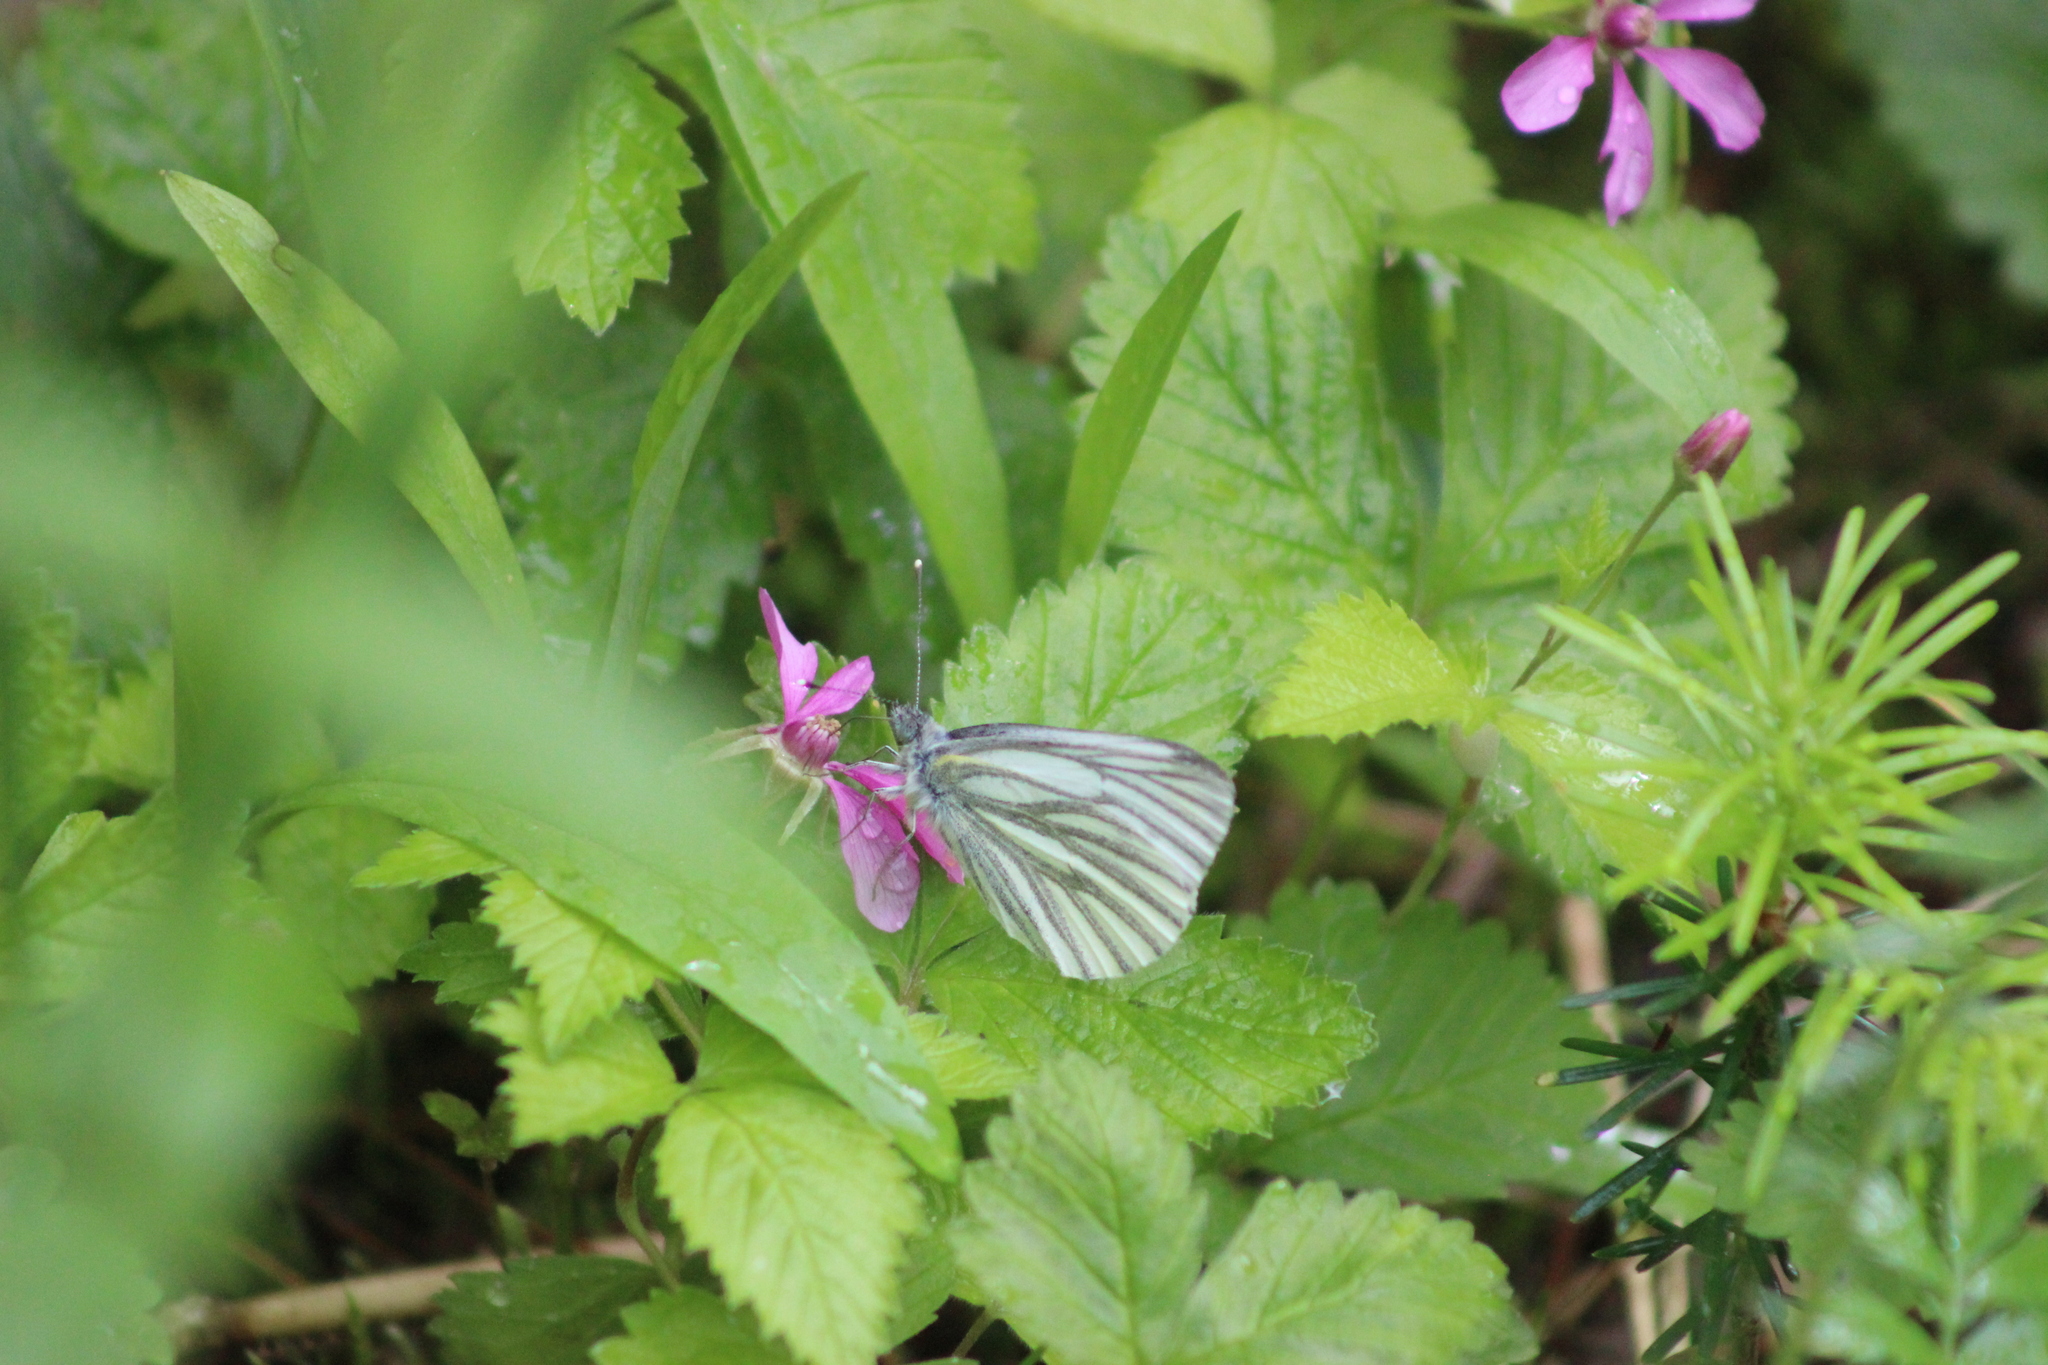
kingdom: Animalia
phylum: Arthropoda
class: Insecta
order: Lepidoptera
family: Pieridae
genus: Pieris
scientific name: Pieris napi
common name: Green-veined white
